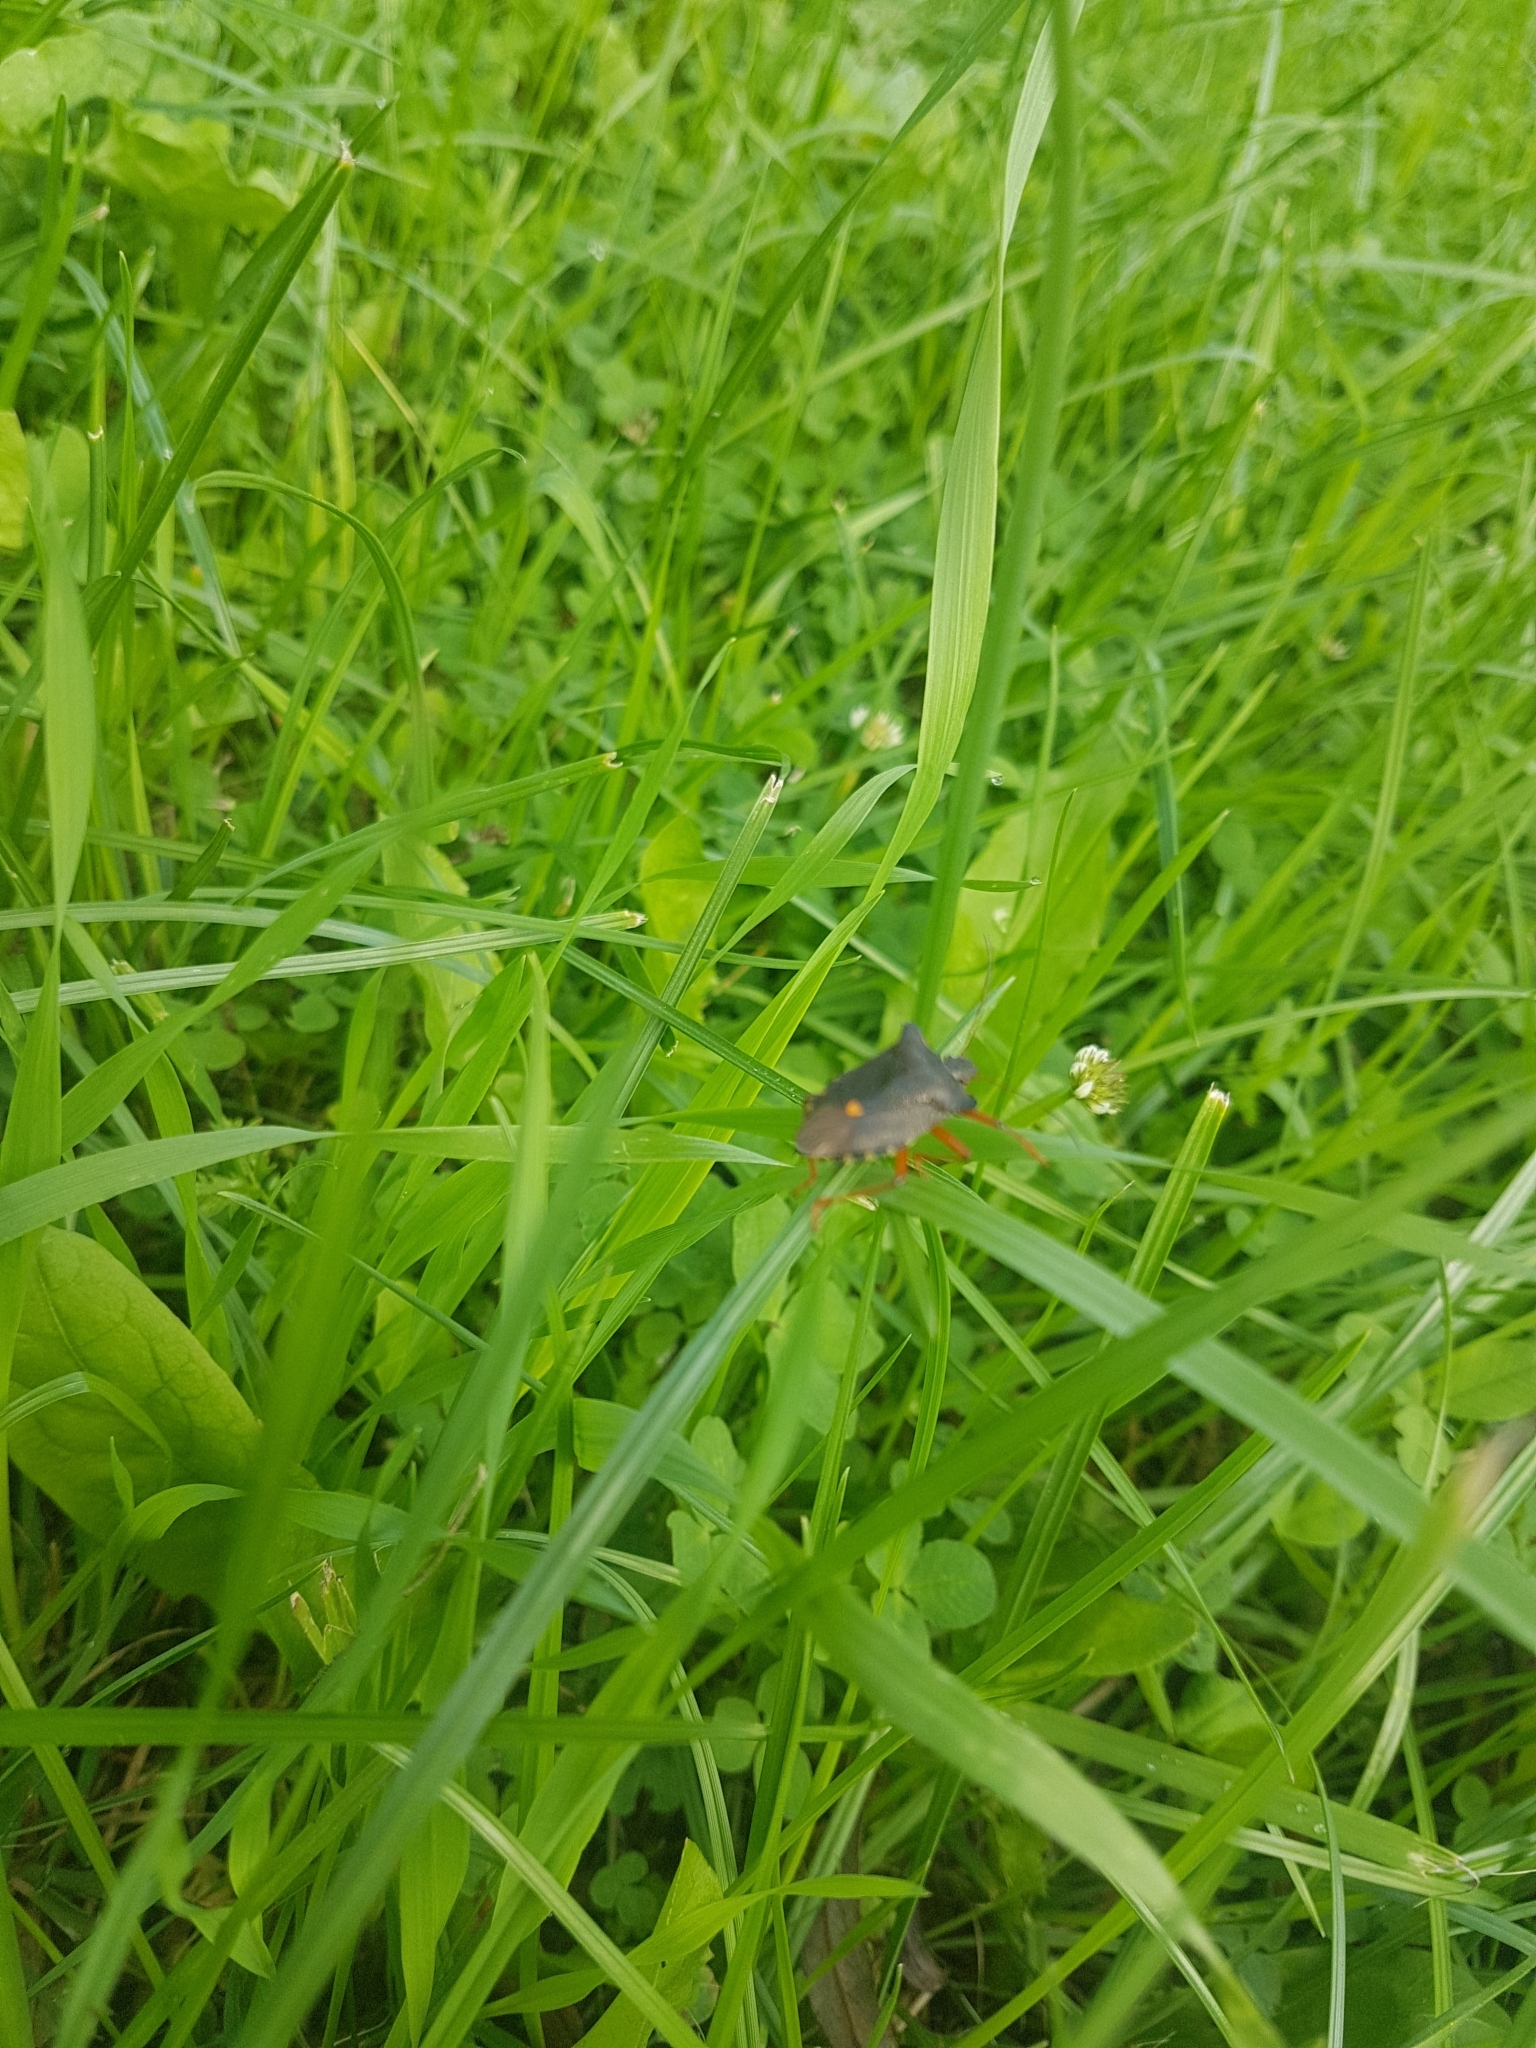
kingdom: Animalia
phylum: Arthropoda
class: Insecta
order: Hemiptera
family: Pentatomidae
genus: Pentatoma
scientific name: Pentatoma rufipes
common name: Forest bug
